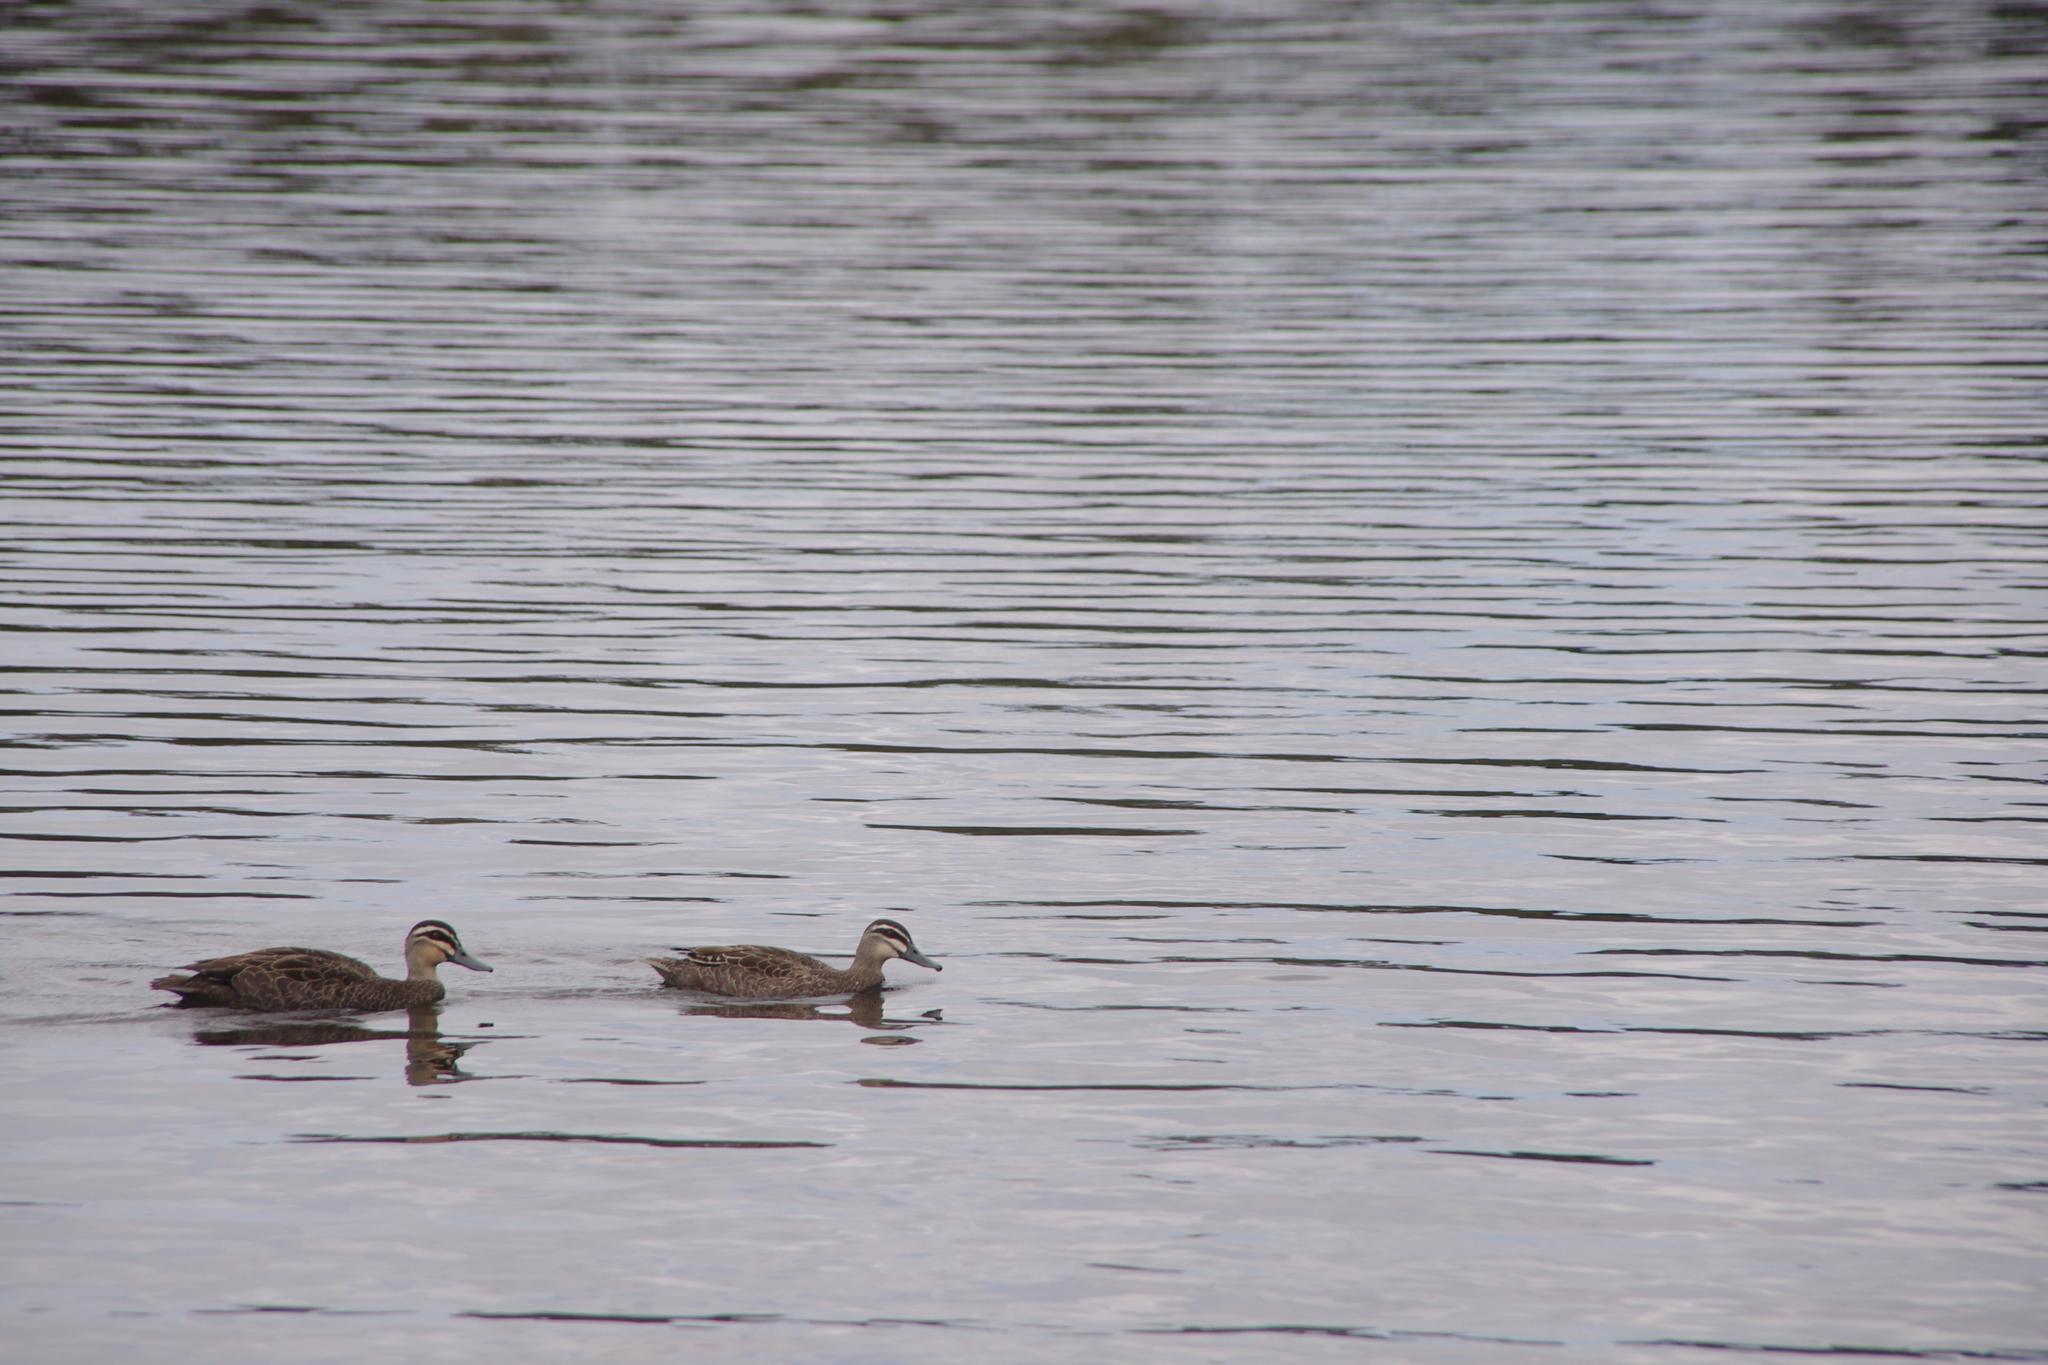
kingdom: Animalia
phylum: Chordata
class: Aves
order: Anseriformes
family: Anatidae
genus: Anas
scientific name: Anas superciliosa
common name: Pacific black duck
